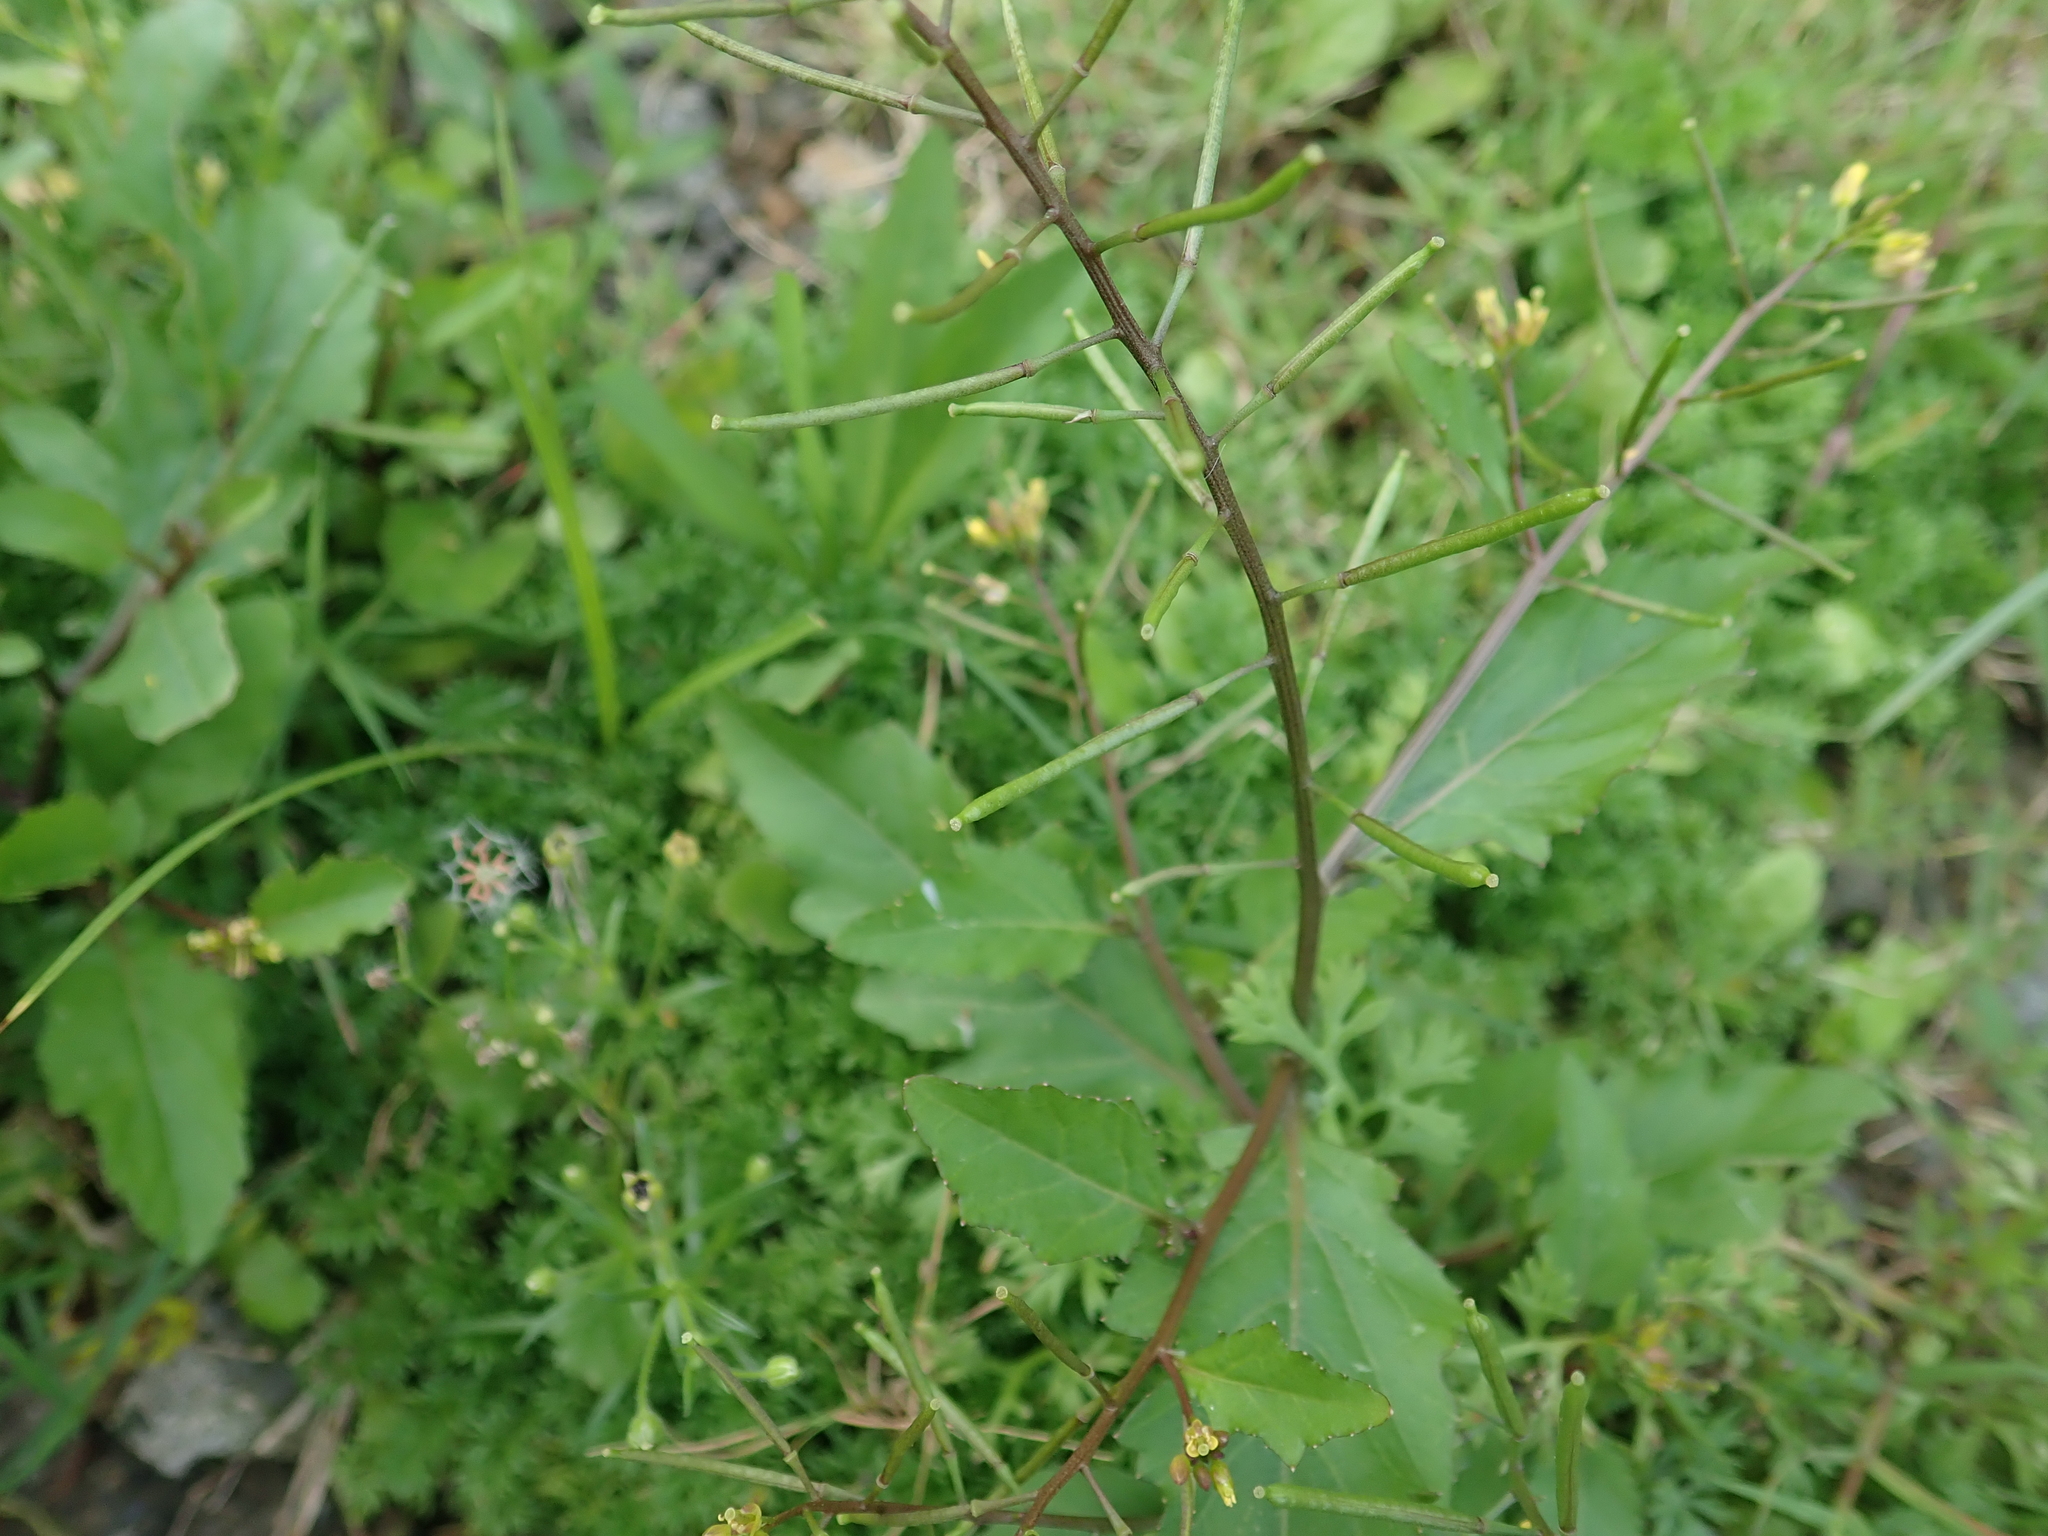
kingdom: Plantae
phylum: Tracheophyta
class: Magnoliopsida
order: Brassicales
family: Brassicaceae
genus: Rorippa
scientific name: Rorippa indica
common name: Variableleaf yellowcress
